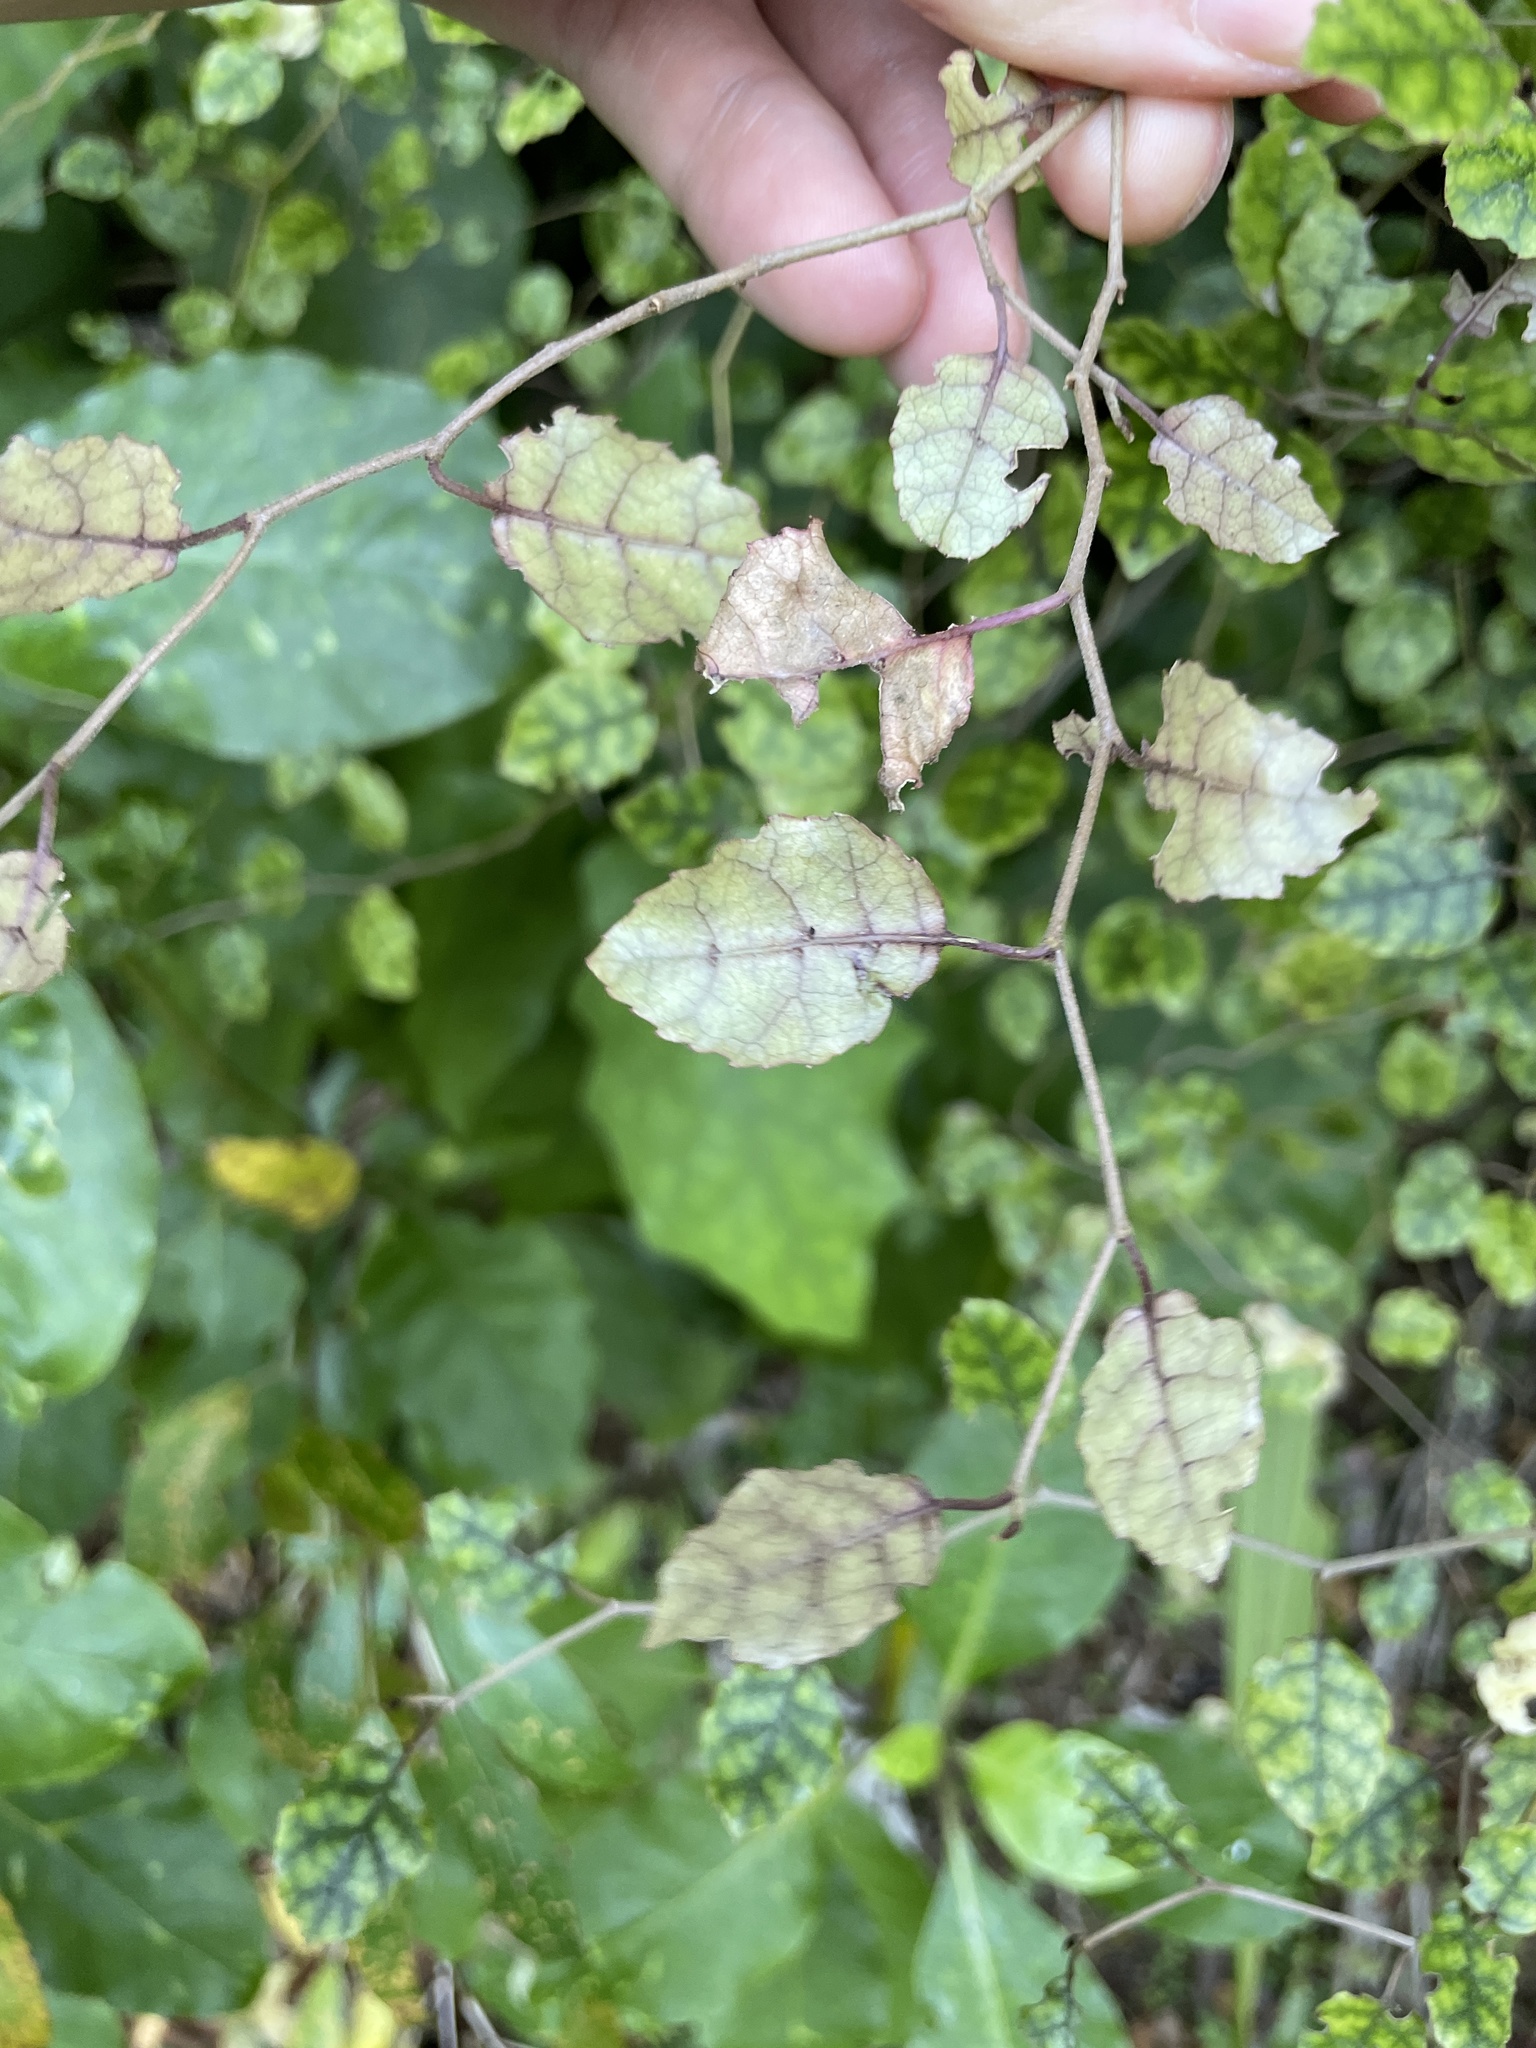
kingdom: Plantae
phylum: Tracheophyta
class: Magnoliopsida
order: Asterales
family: Rousseaceae
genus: Carpodetus
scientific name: Carpodetus serratus
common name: White mapau
